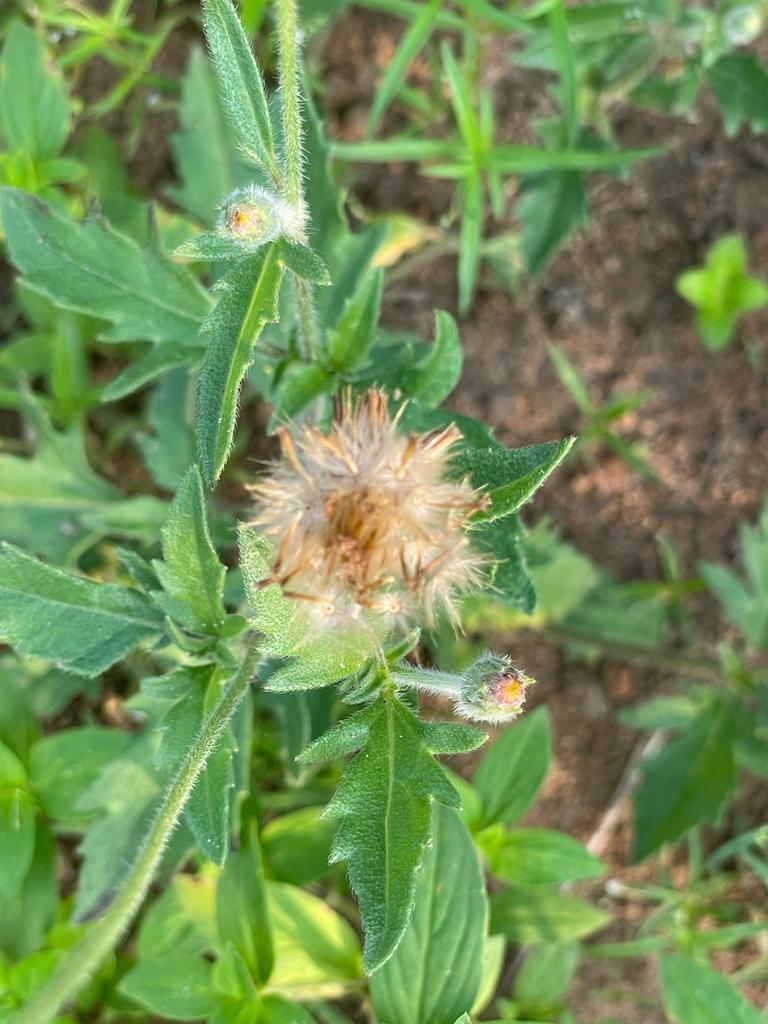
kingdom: Plantae
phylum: Tracheophyta
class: Magnoliopsida
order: Asterales
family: Asteraceae
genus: Tridax
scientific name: Tridax procumbens
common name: Coatbuttons
